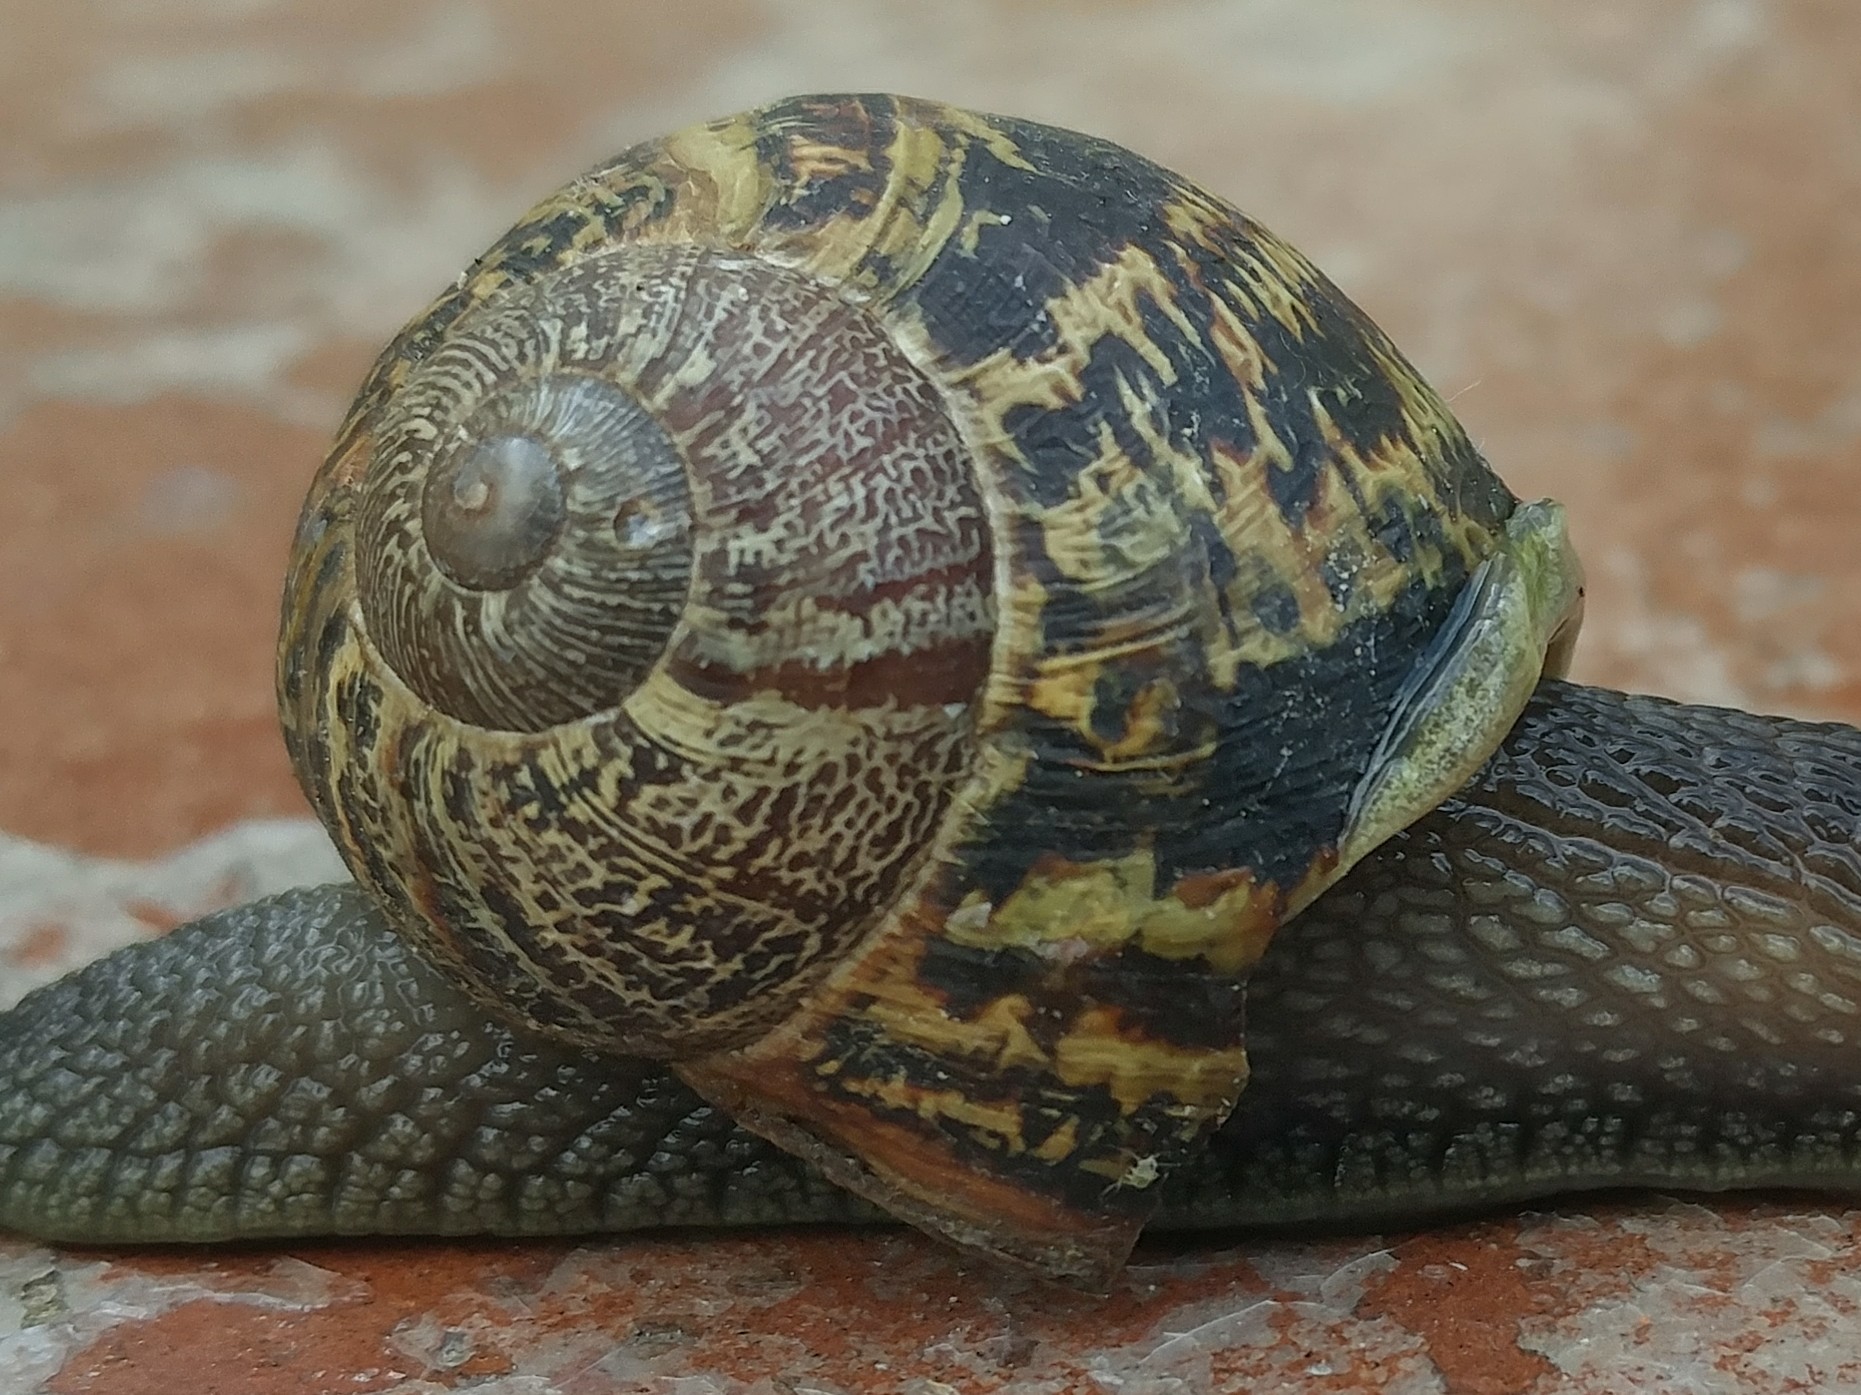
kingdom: Animalia
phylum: Mollusca
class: Gastropoda
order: Stylommatophora
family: Helicidae
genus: Cornu
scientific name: Cornu aspersum
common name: Brown garden snail
